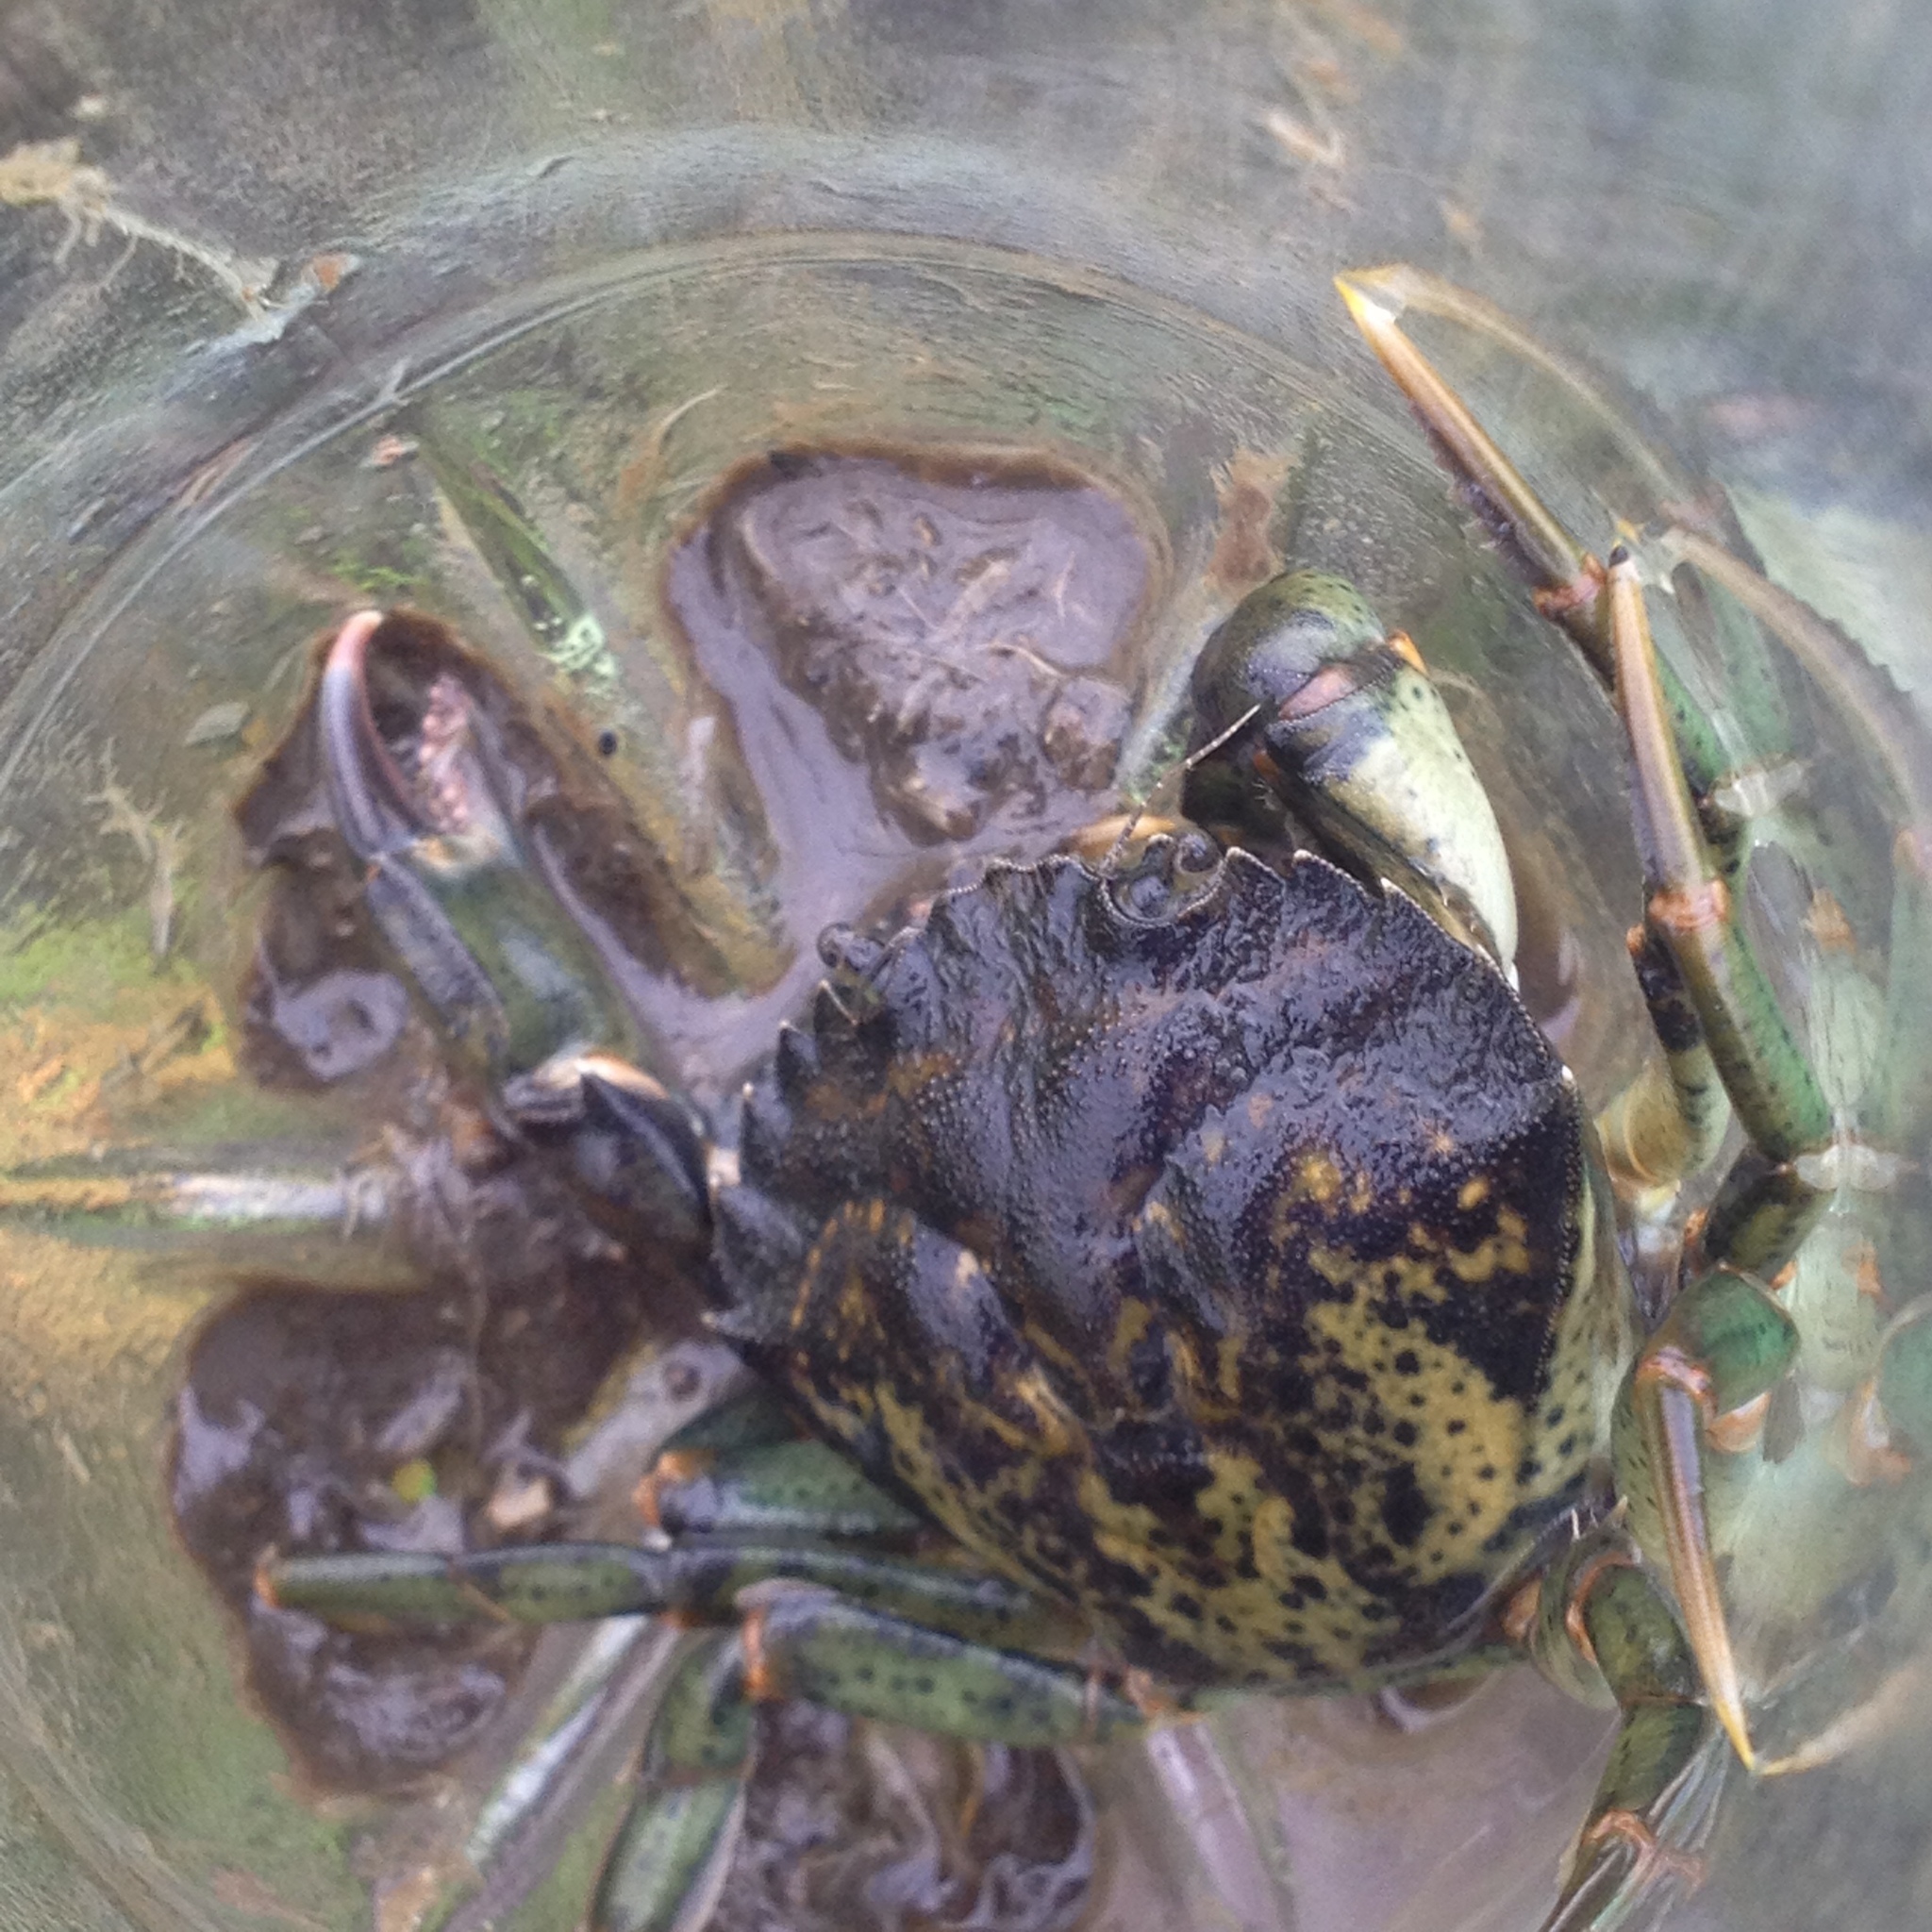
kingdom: Animalia
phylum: Arthropoda
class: Malacostraca
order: Decapoda
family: Carcinidae
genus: Carcinus
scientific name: Carcinus maenas
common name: European green crab
